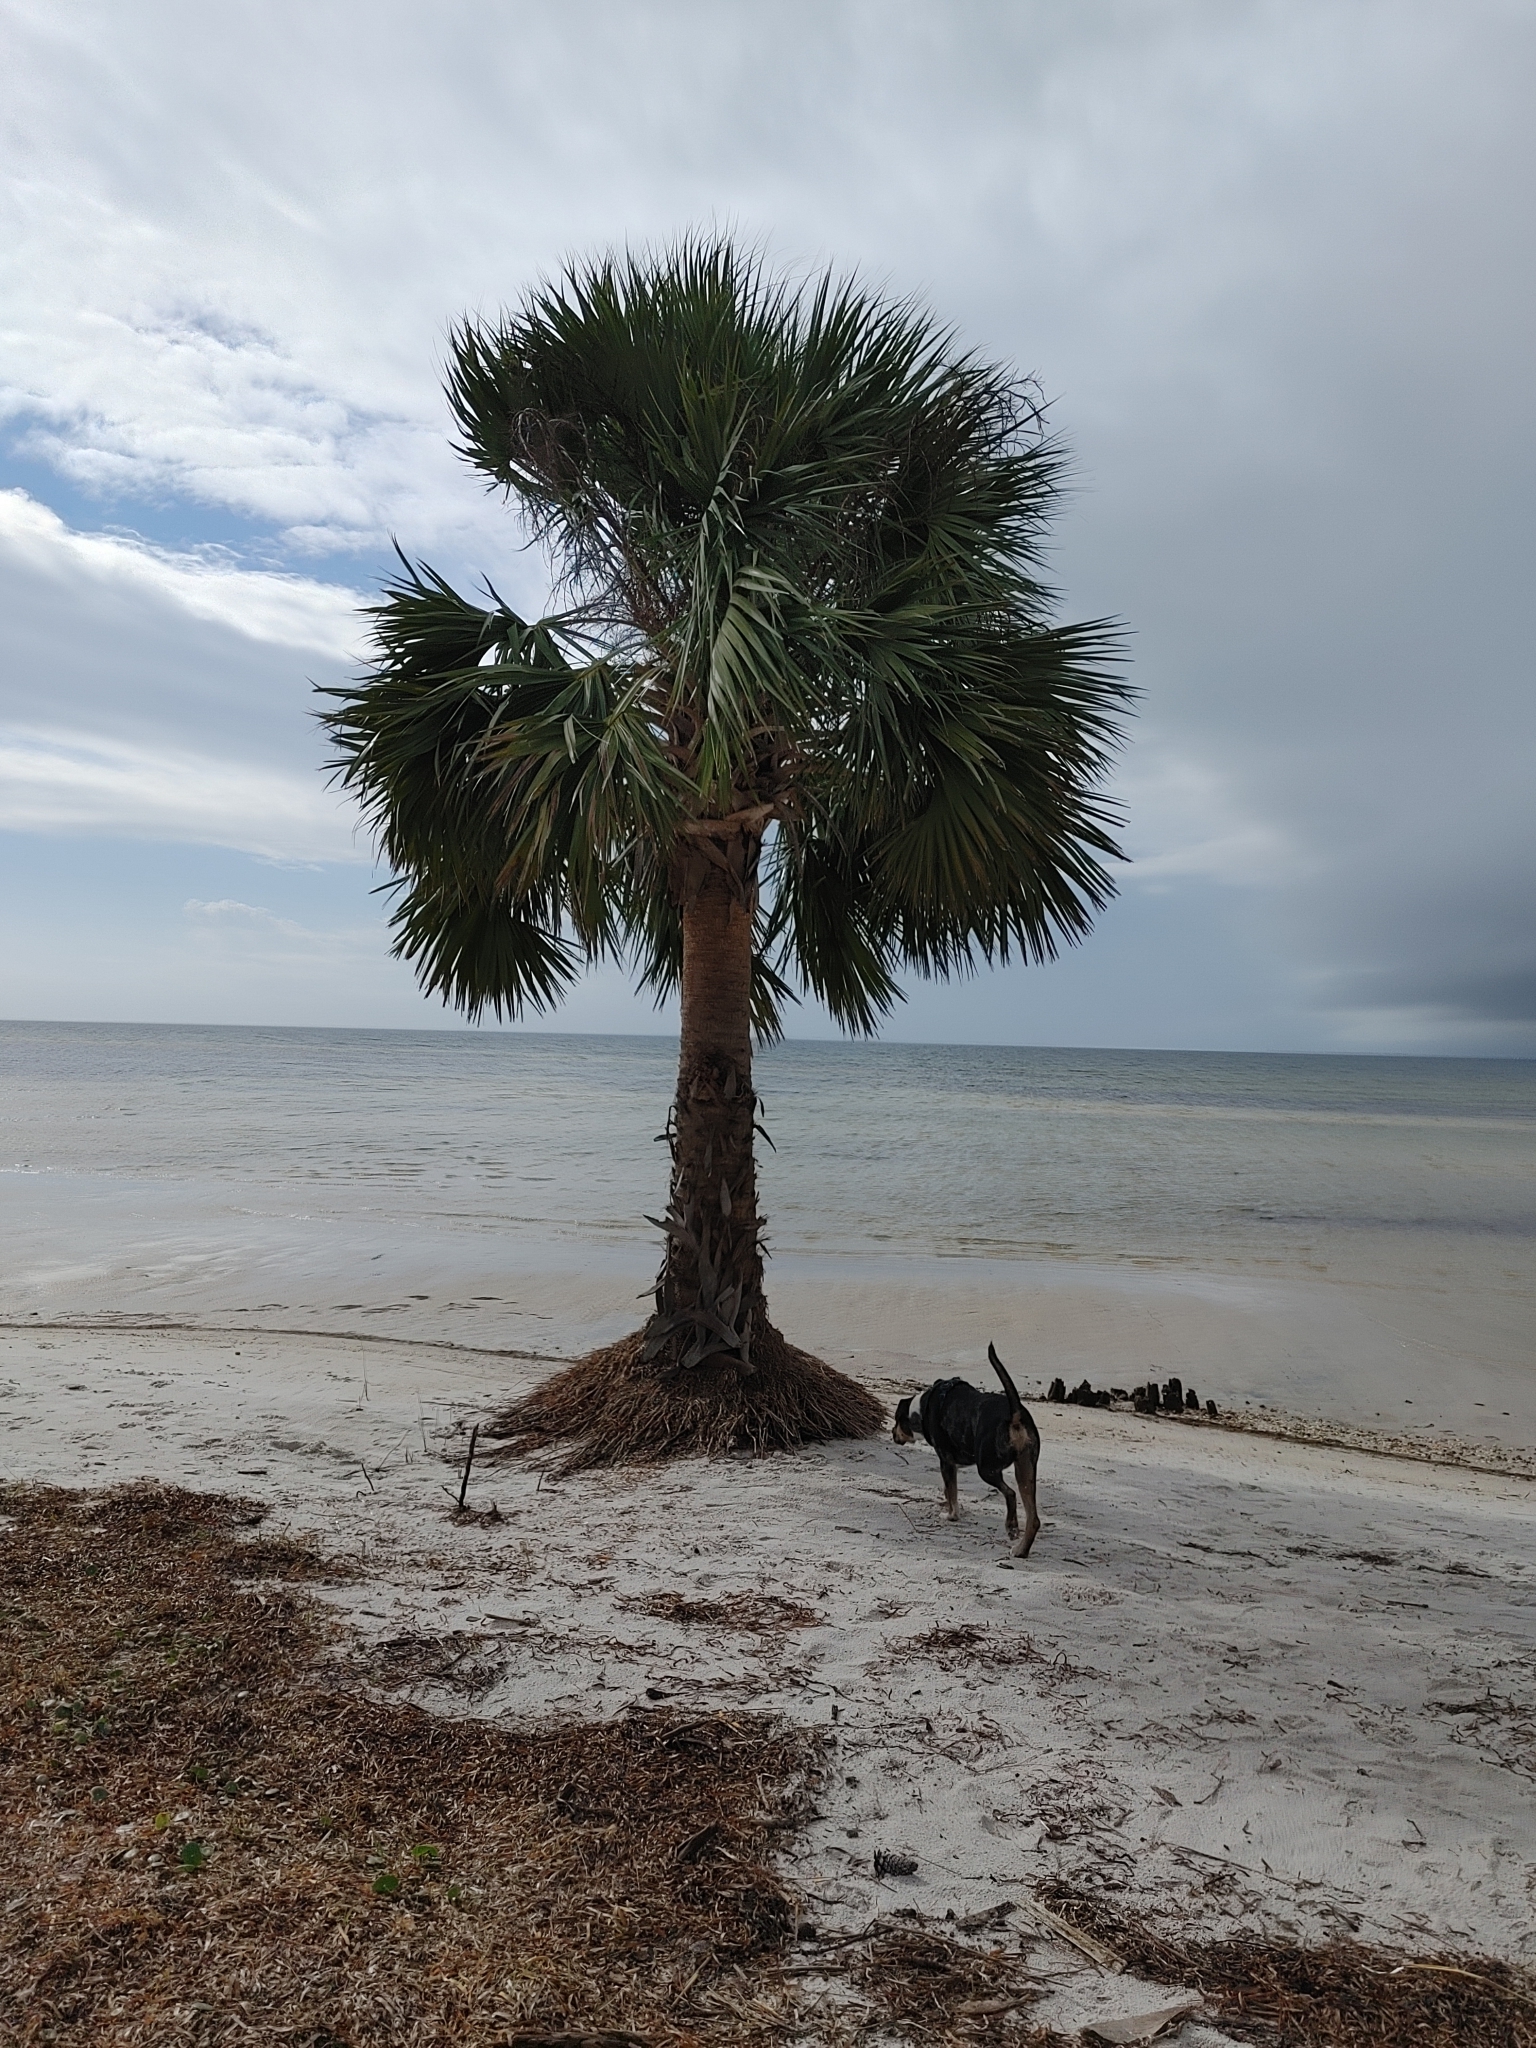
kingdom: Plantae
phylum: Tracheophyta
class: Liliopsida
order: Arecales
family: Arecaceae
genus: Sabal
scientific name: Sabal palmetto
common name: Blue palmetto
